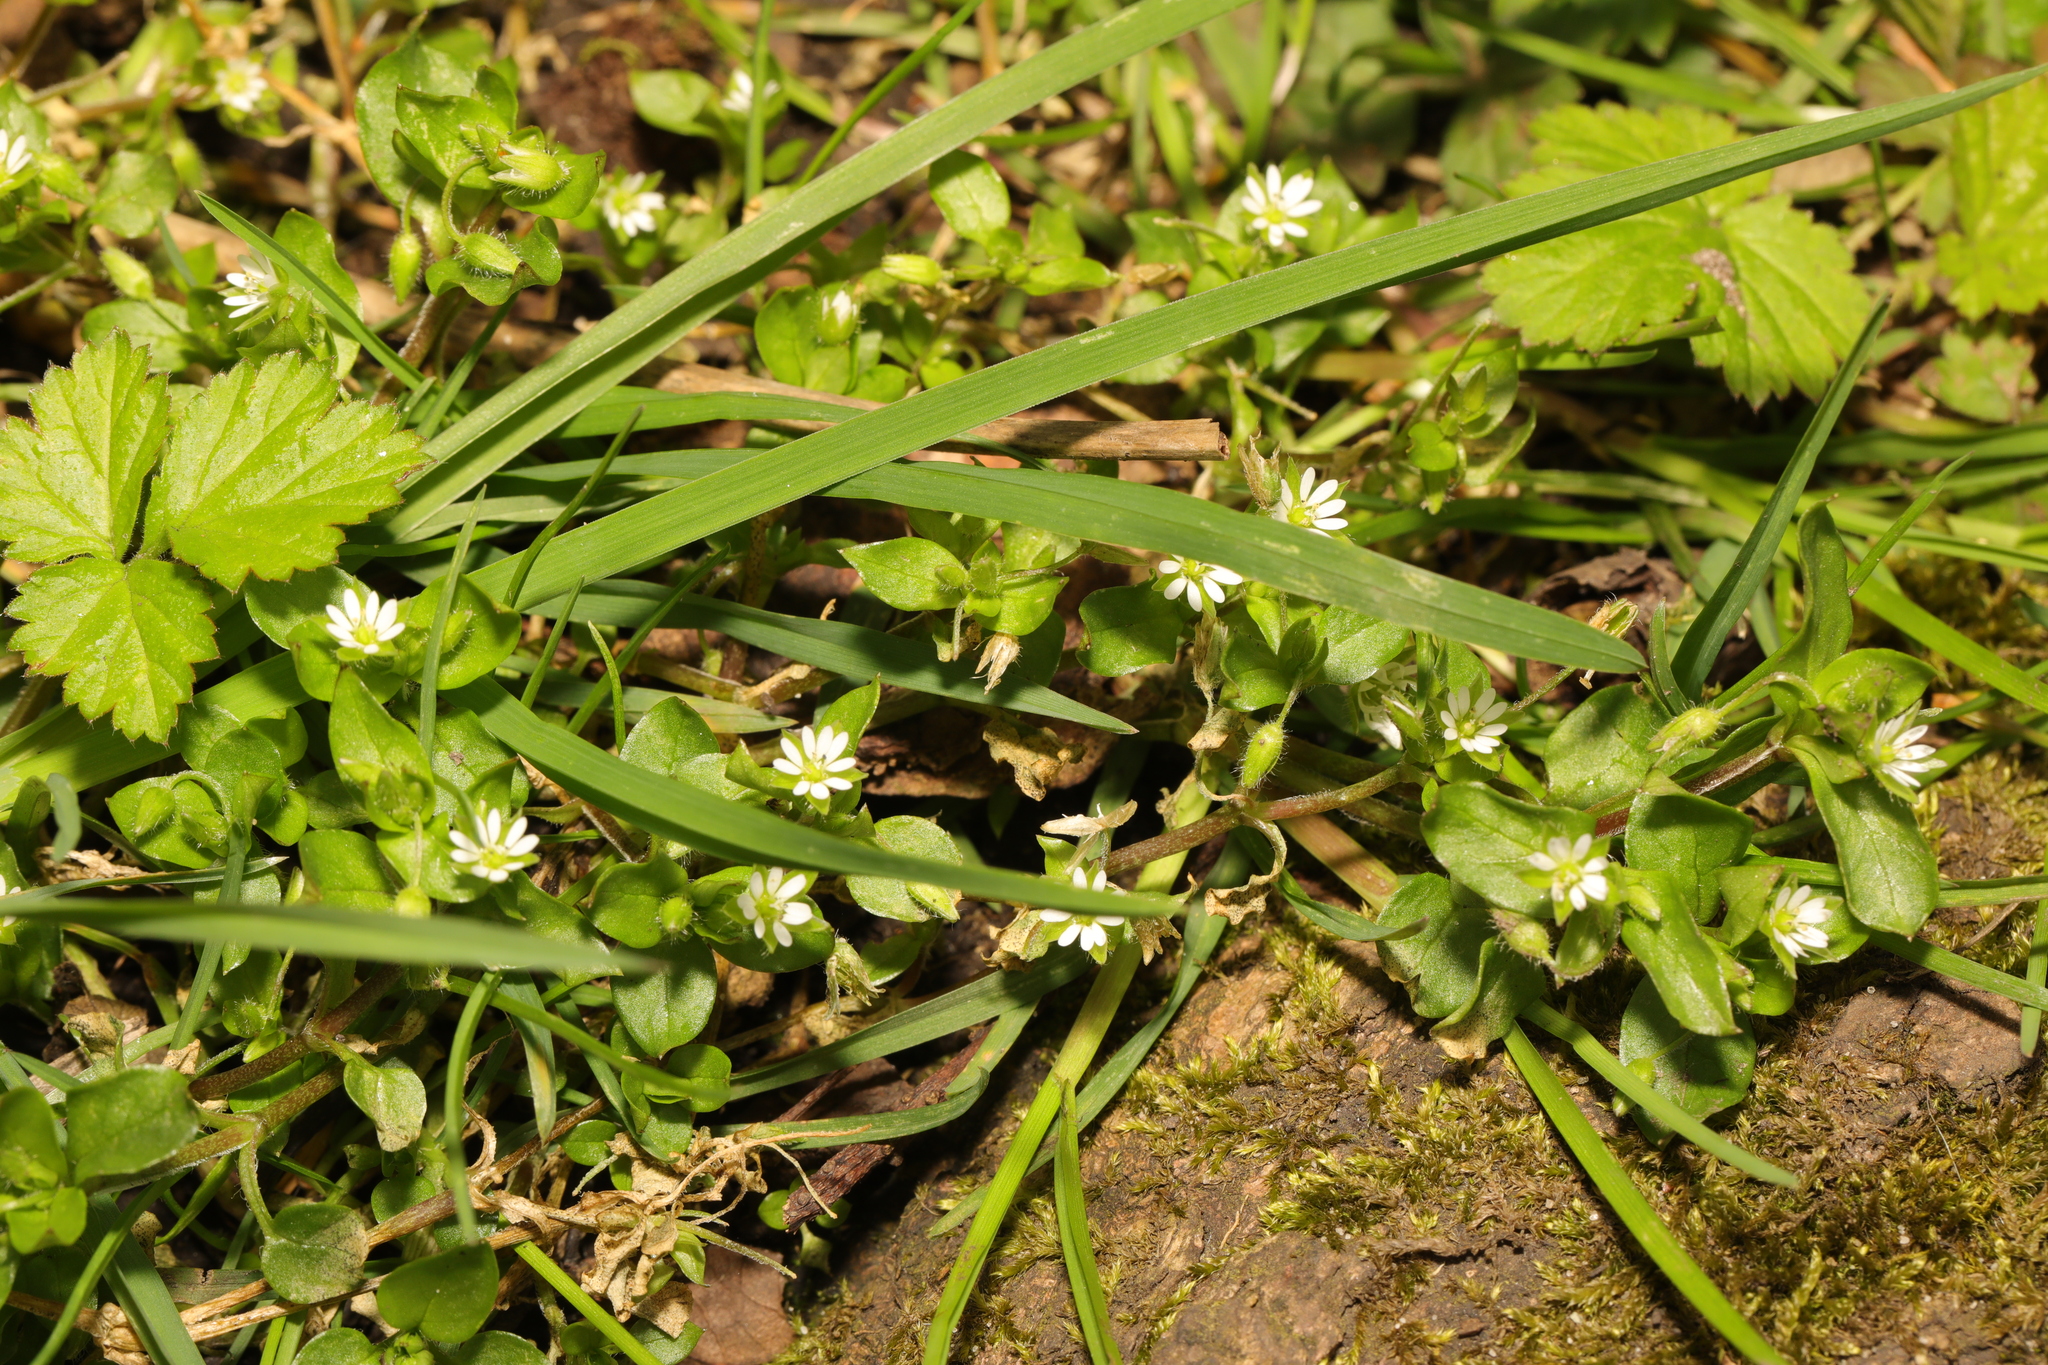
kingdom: Plantae
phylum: Tracheophyta
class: Magnoliopsida
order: Caryophyllales
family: Caryophyllaceae
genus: Stellaria
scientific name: Stellaria media
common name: Common chickweed
